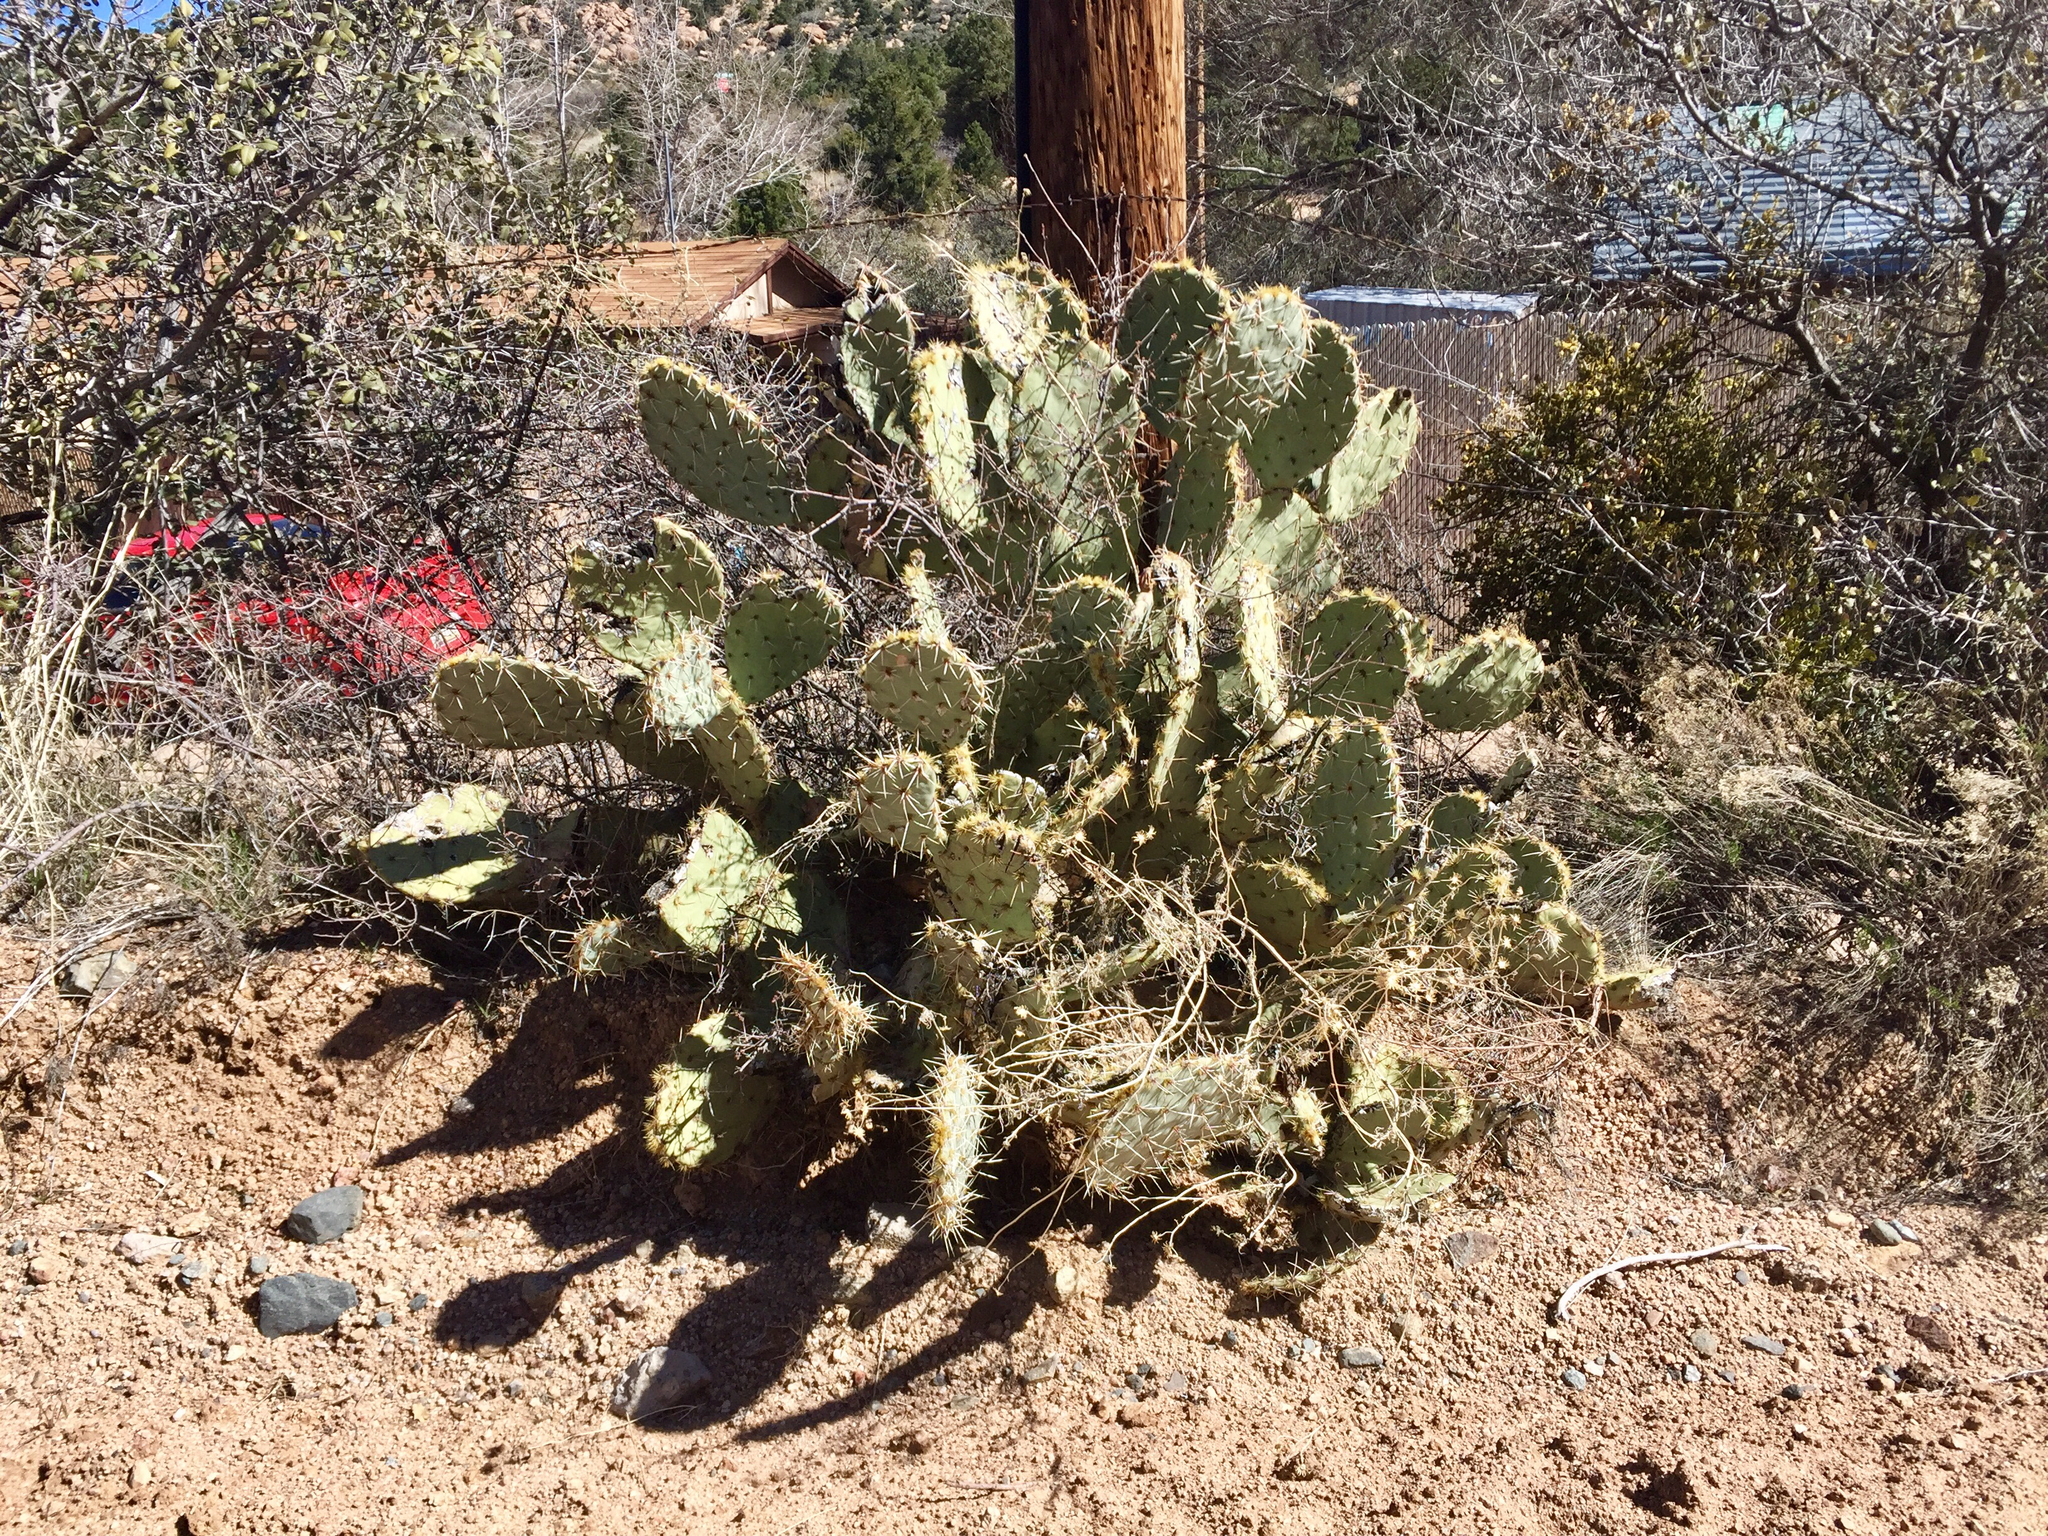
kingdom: Plantae
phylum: Tracheophyta
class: Magnoliopsida
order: Caryophyllales
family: Cactaceae
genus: Opuntia
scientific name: Opuntia engelmannii
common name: Cactus-apple
